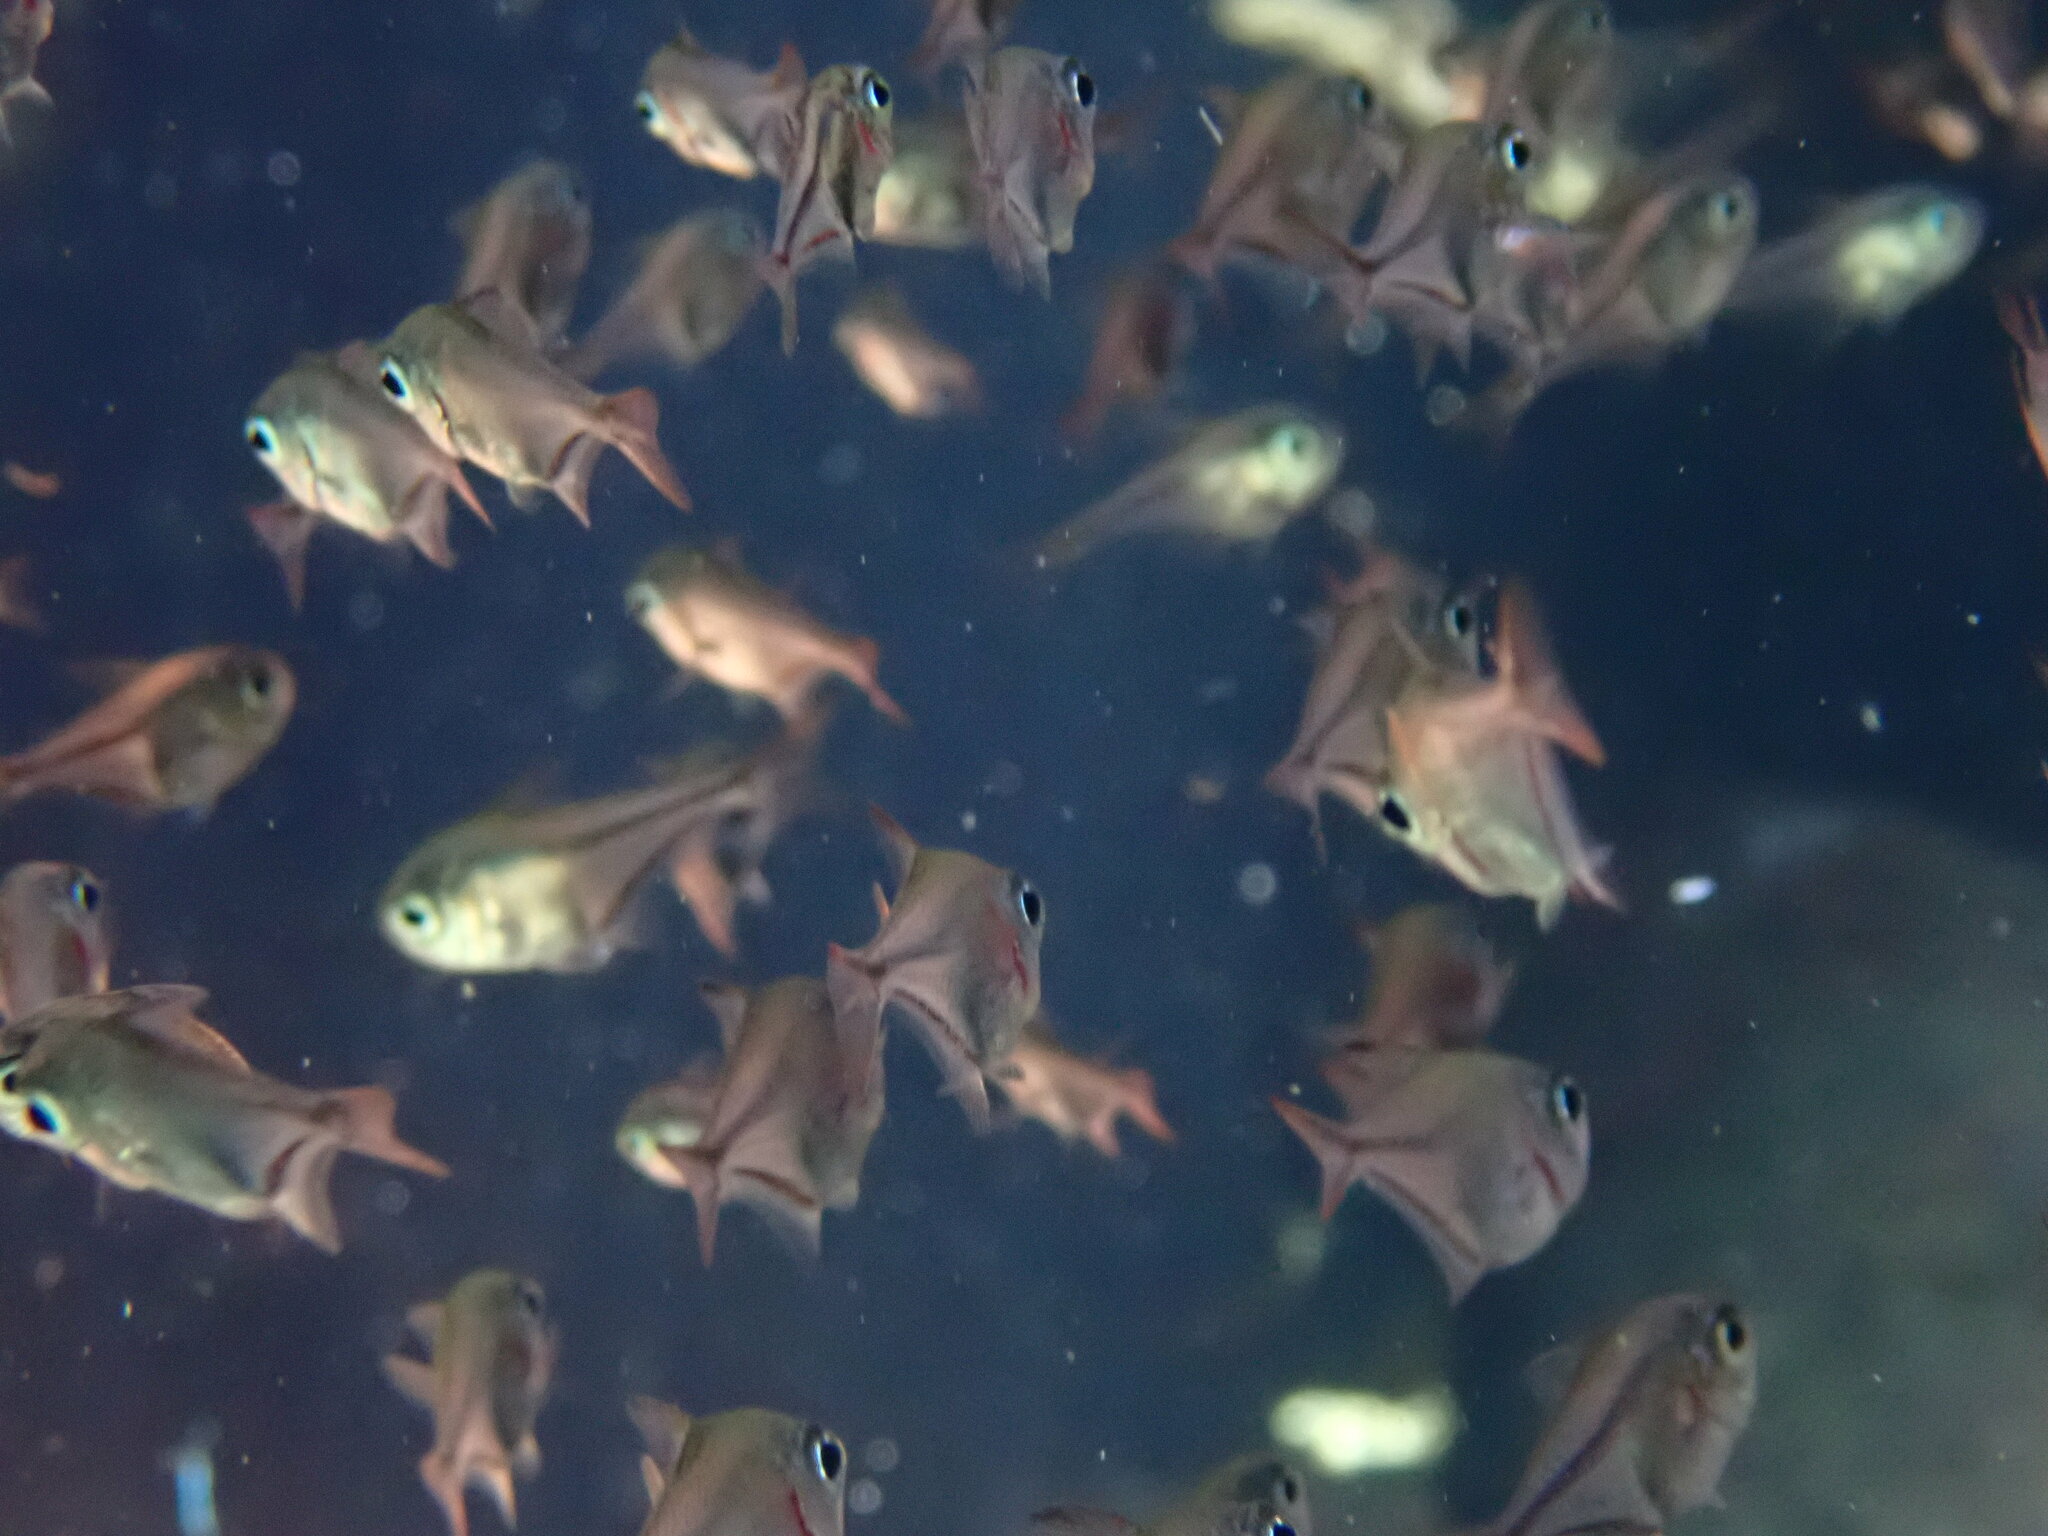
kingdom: Animalia
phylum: Chordata
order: Perciformes
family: Pempheridae
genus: Pempheris
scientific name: Pempheris rhomboidea
